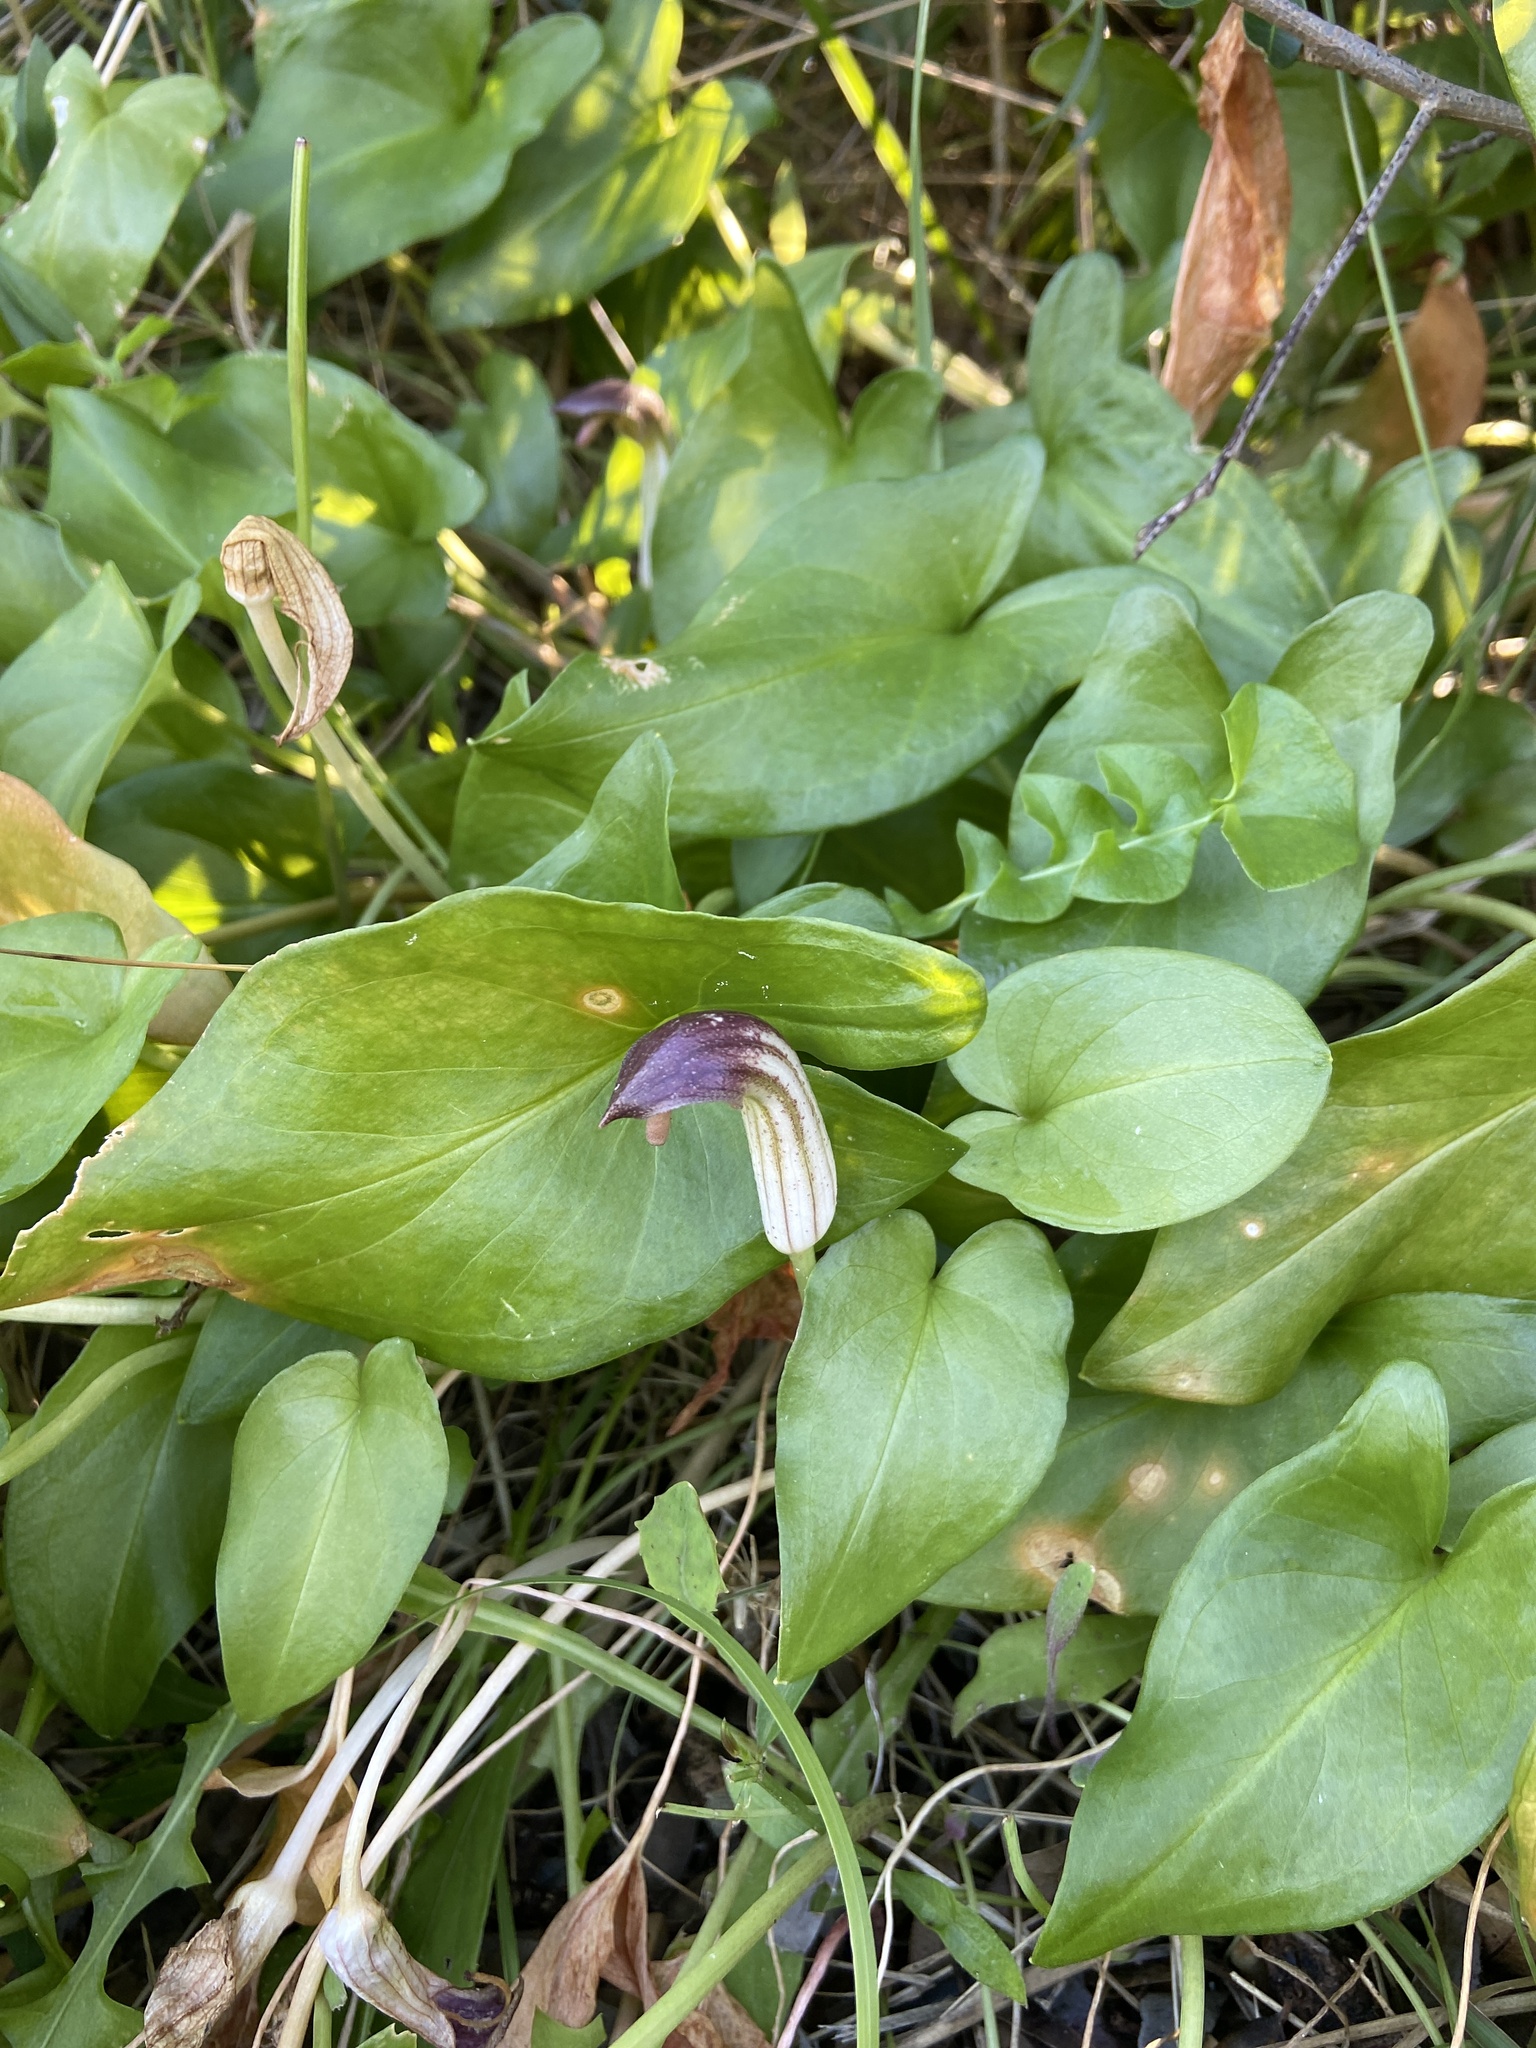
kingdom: Plantae
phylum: Tracheophyta
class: Liliopsida
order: Alismatales
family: Araceae
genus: Arisarum
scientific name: Arisarum vulgare
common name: Common arisarum
